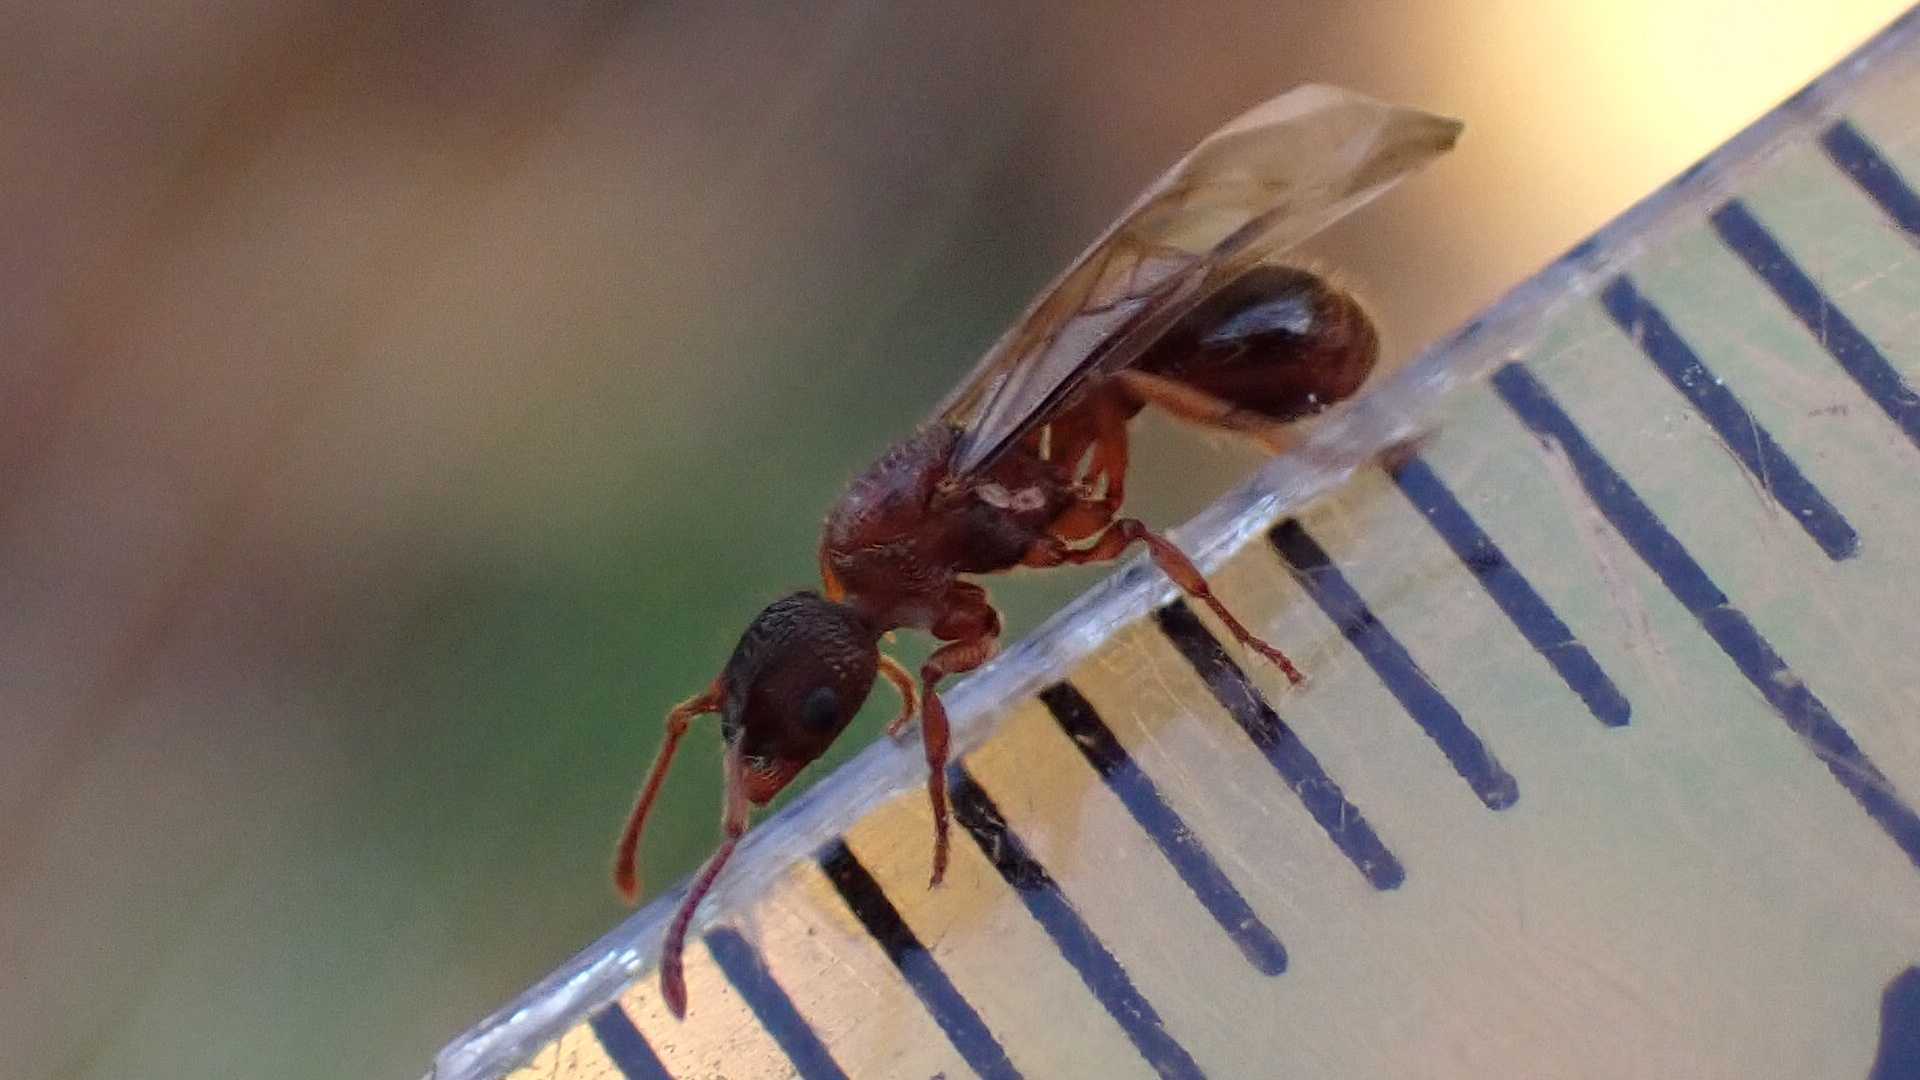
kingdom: Animalia
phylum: Arthropoda
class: Insecta
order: Hymenoptera
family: Formicidae
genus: Myrmica
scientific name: Myrmica
